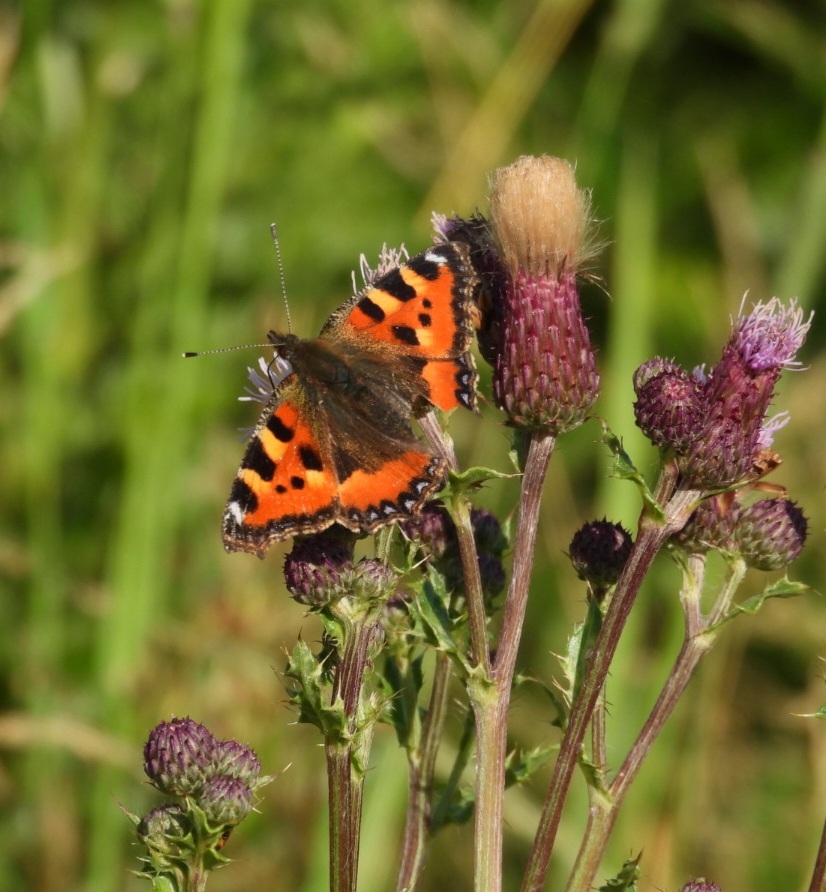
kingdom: Animalia
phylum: Arthropoda
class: Insecta
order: Lepidoptera
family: Nymphalidae
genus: Aglais
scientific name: Aglais urticae
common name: Small tortoiseshell
